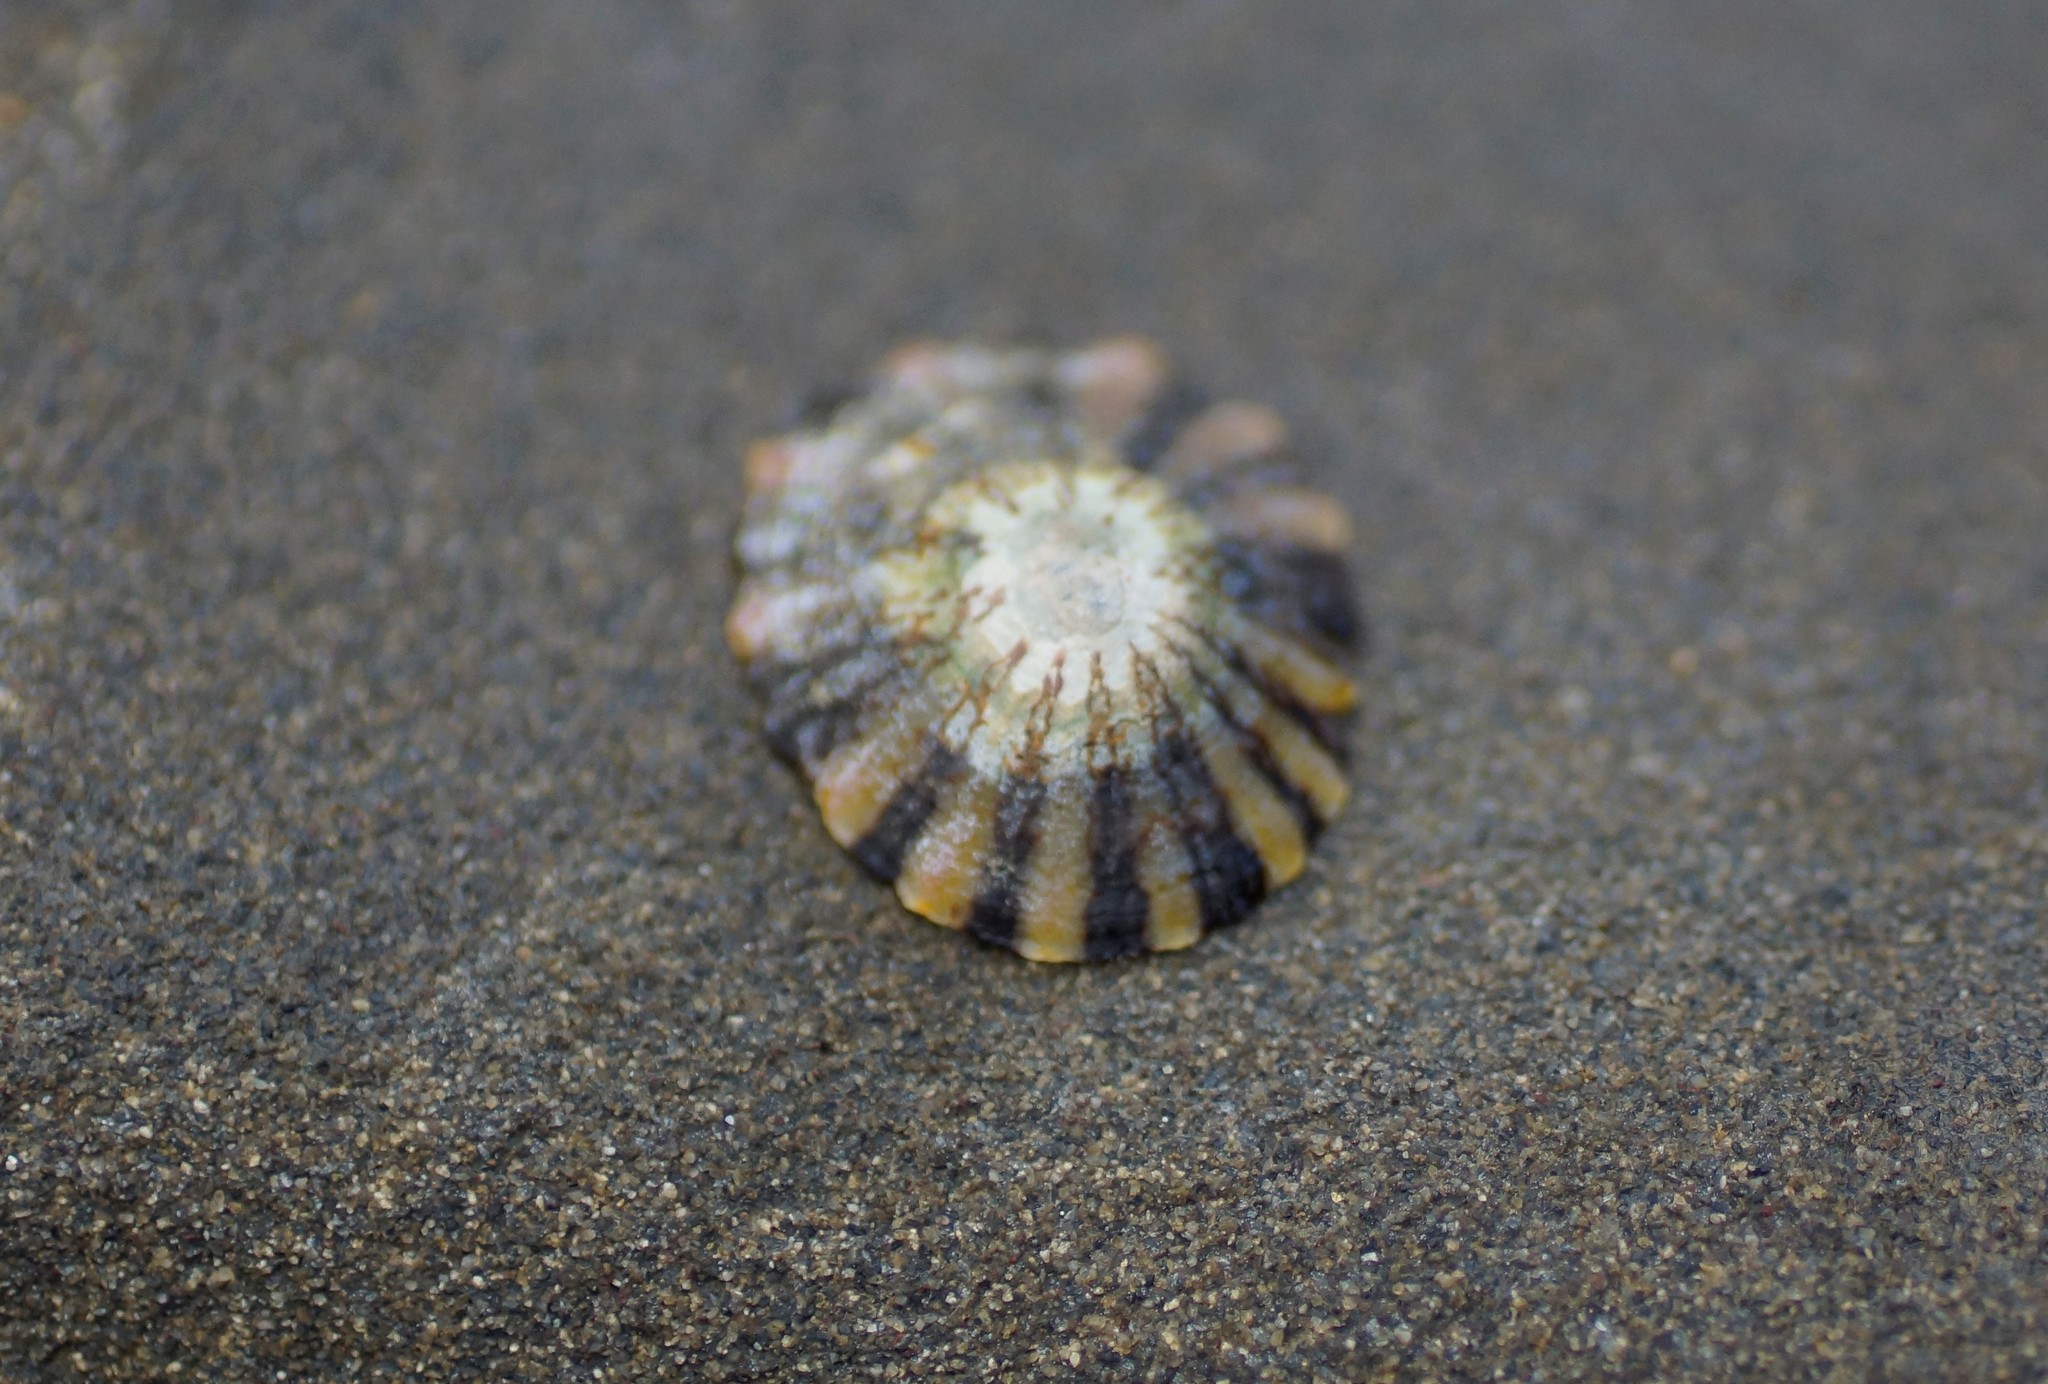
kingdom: Animalia
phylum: Mollusca
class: Gastropoda
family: Nacellidae
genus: Cellana
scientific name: Cellana tramoserica
